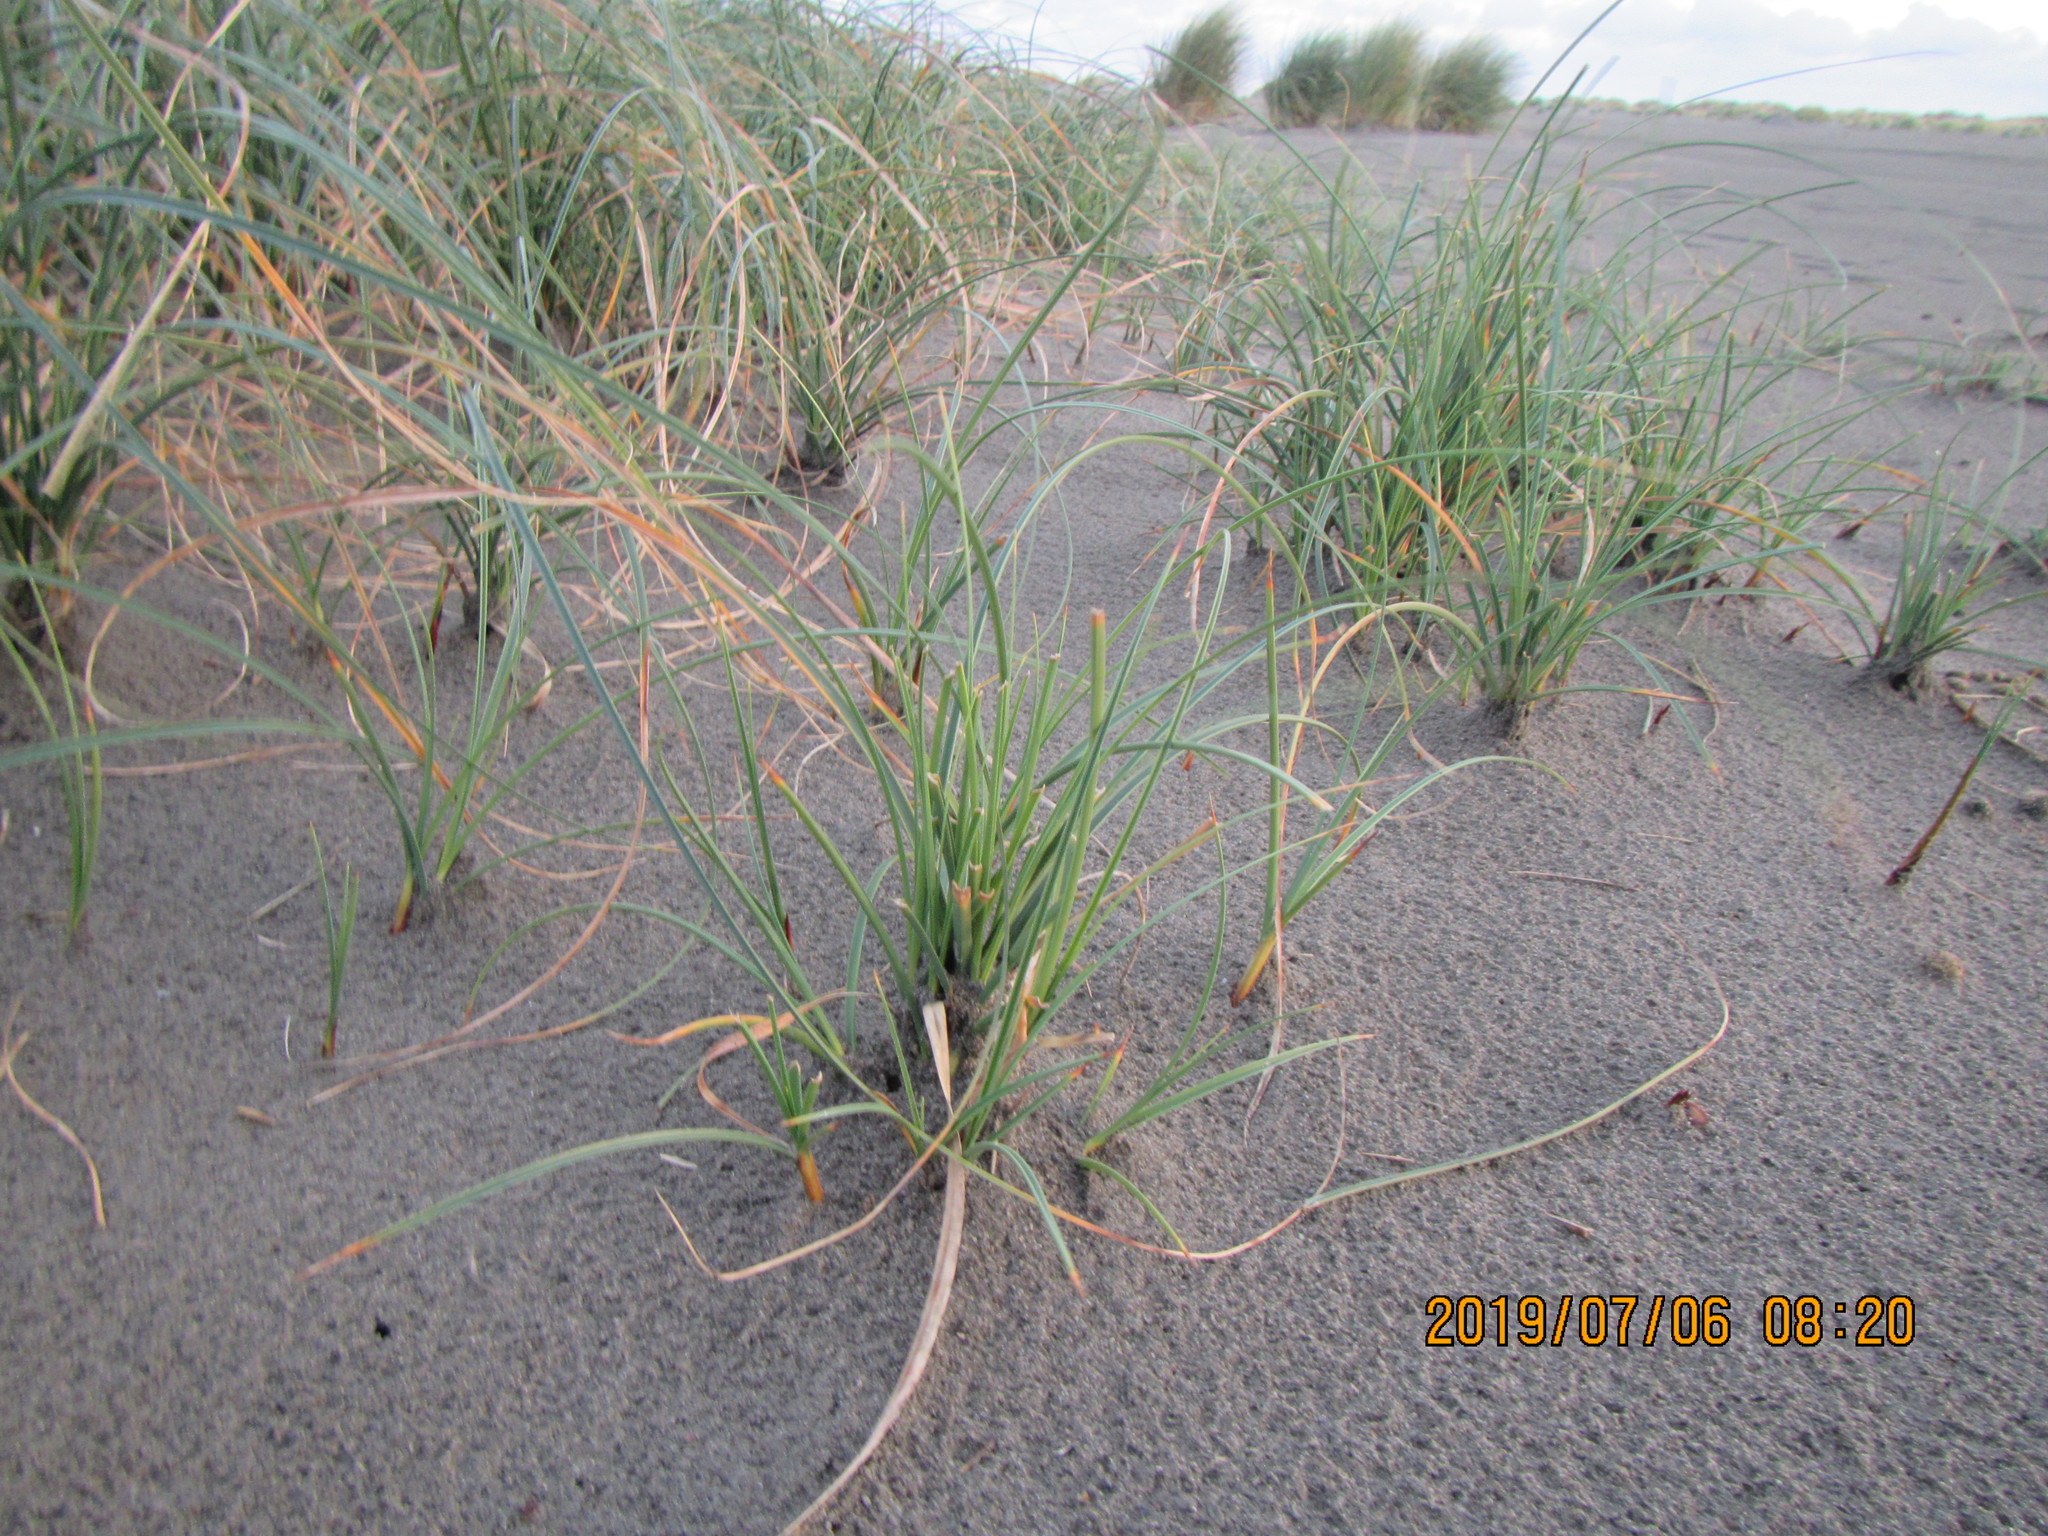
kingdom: Plantae
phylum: Tracheophyta
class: Liliopsida
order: Poales
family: Cyperaceae
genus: Carex
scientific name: Carex pumila
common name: Dwarf sedge
